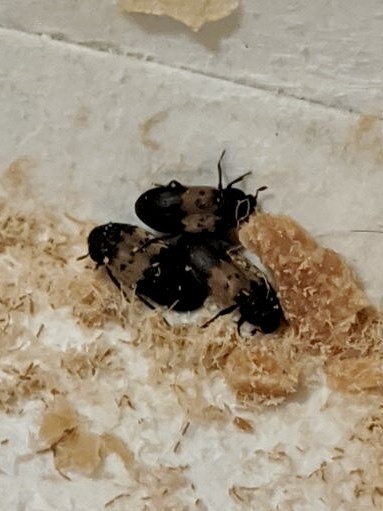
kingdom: Animalia
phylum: Arthropoda
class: Insecta
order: Coleoptera
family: Dermestidae
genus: Dermestes
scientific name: Dermestes lardarius
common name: Larder beetle
